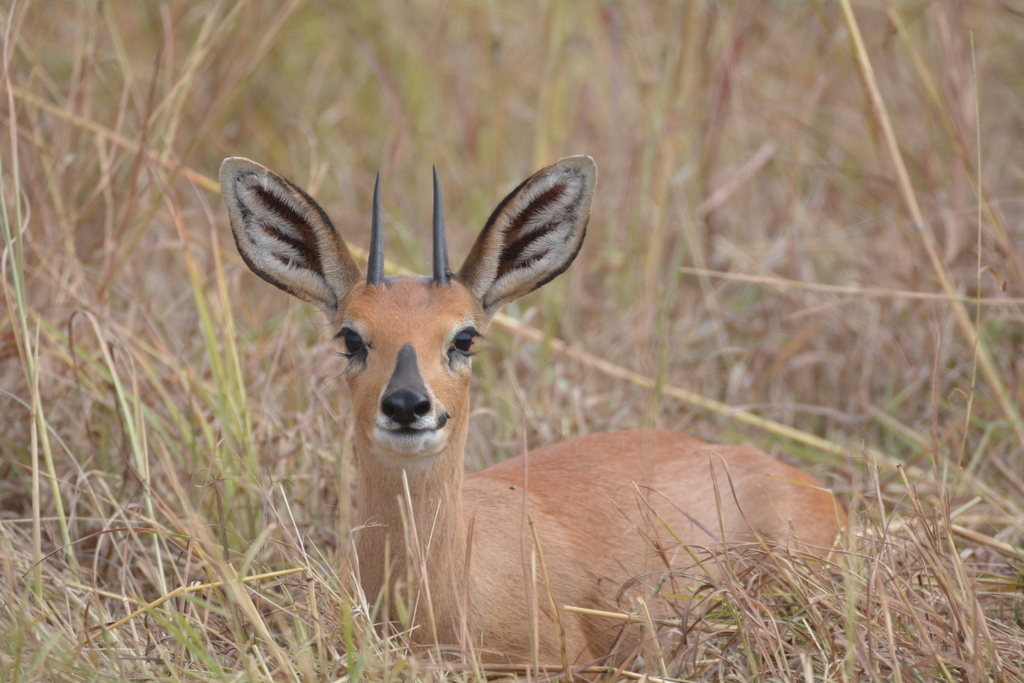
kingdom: Animalia
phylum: Chordata
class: Mammalia
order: Artiodactyla
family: Bovidae
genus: Raphicerus
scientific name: Raphicerus campestris
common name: Steenbok
